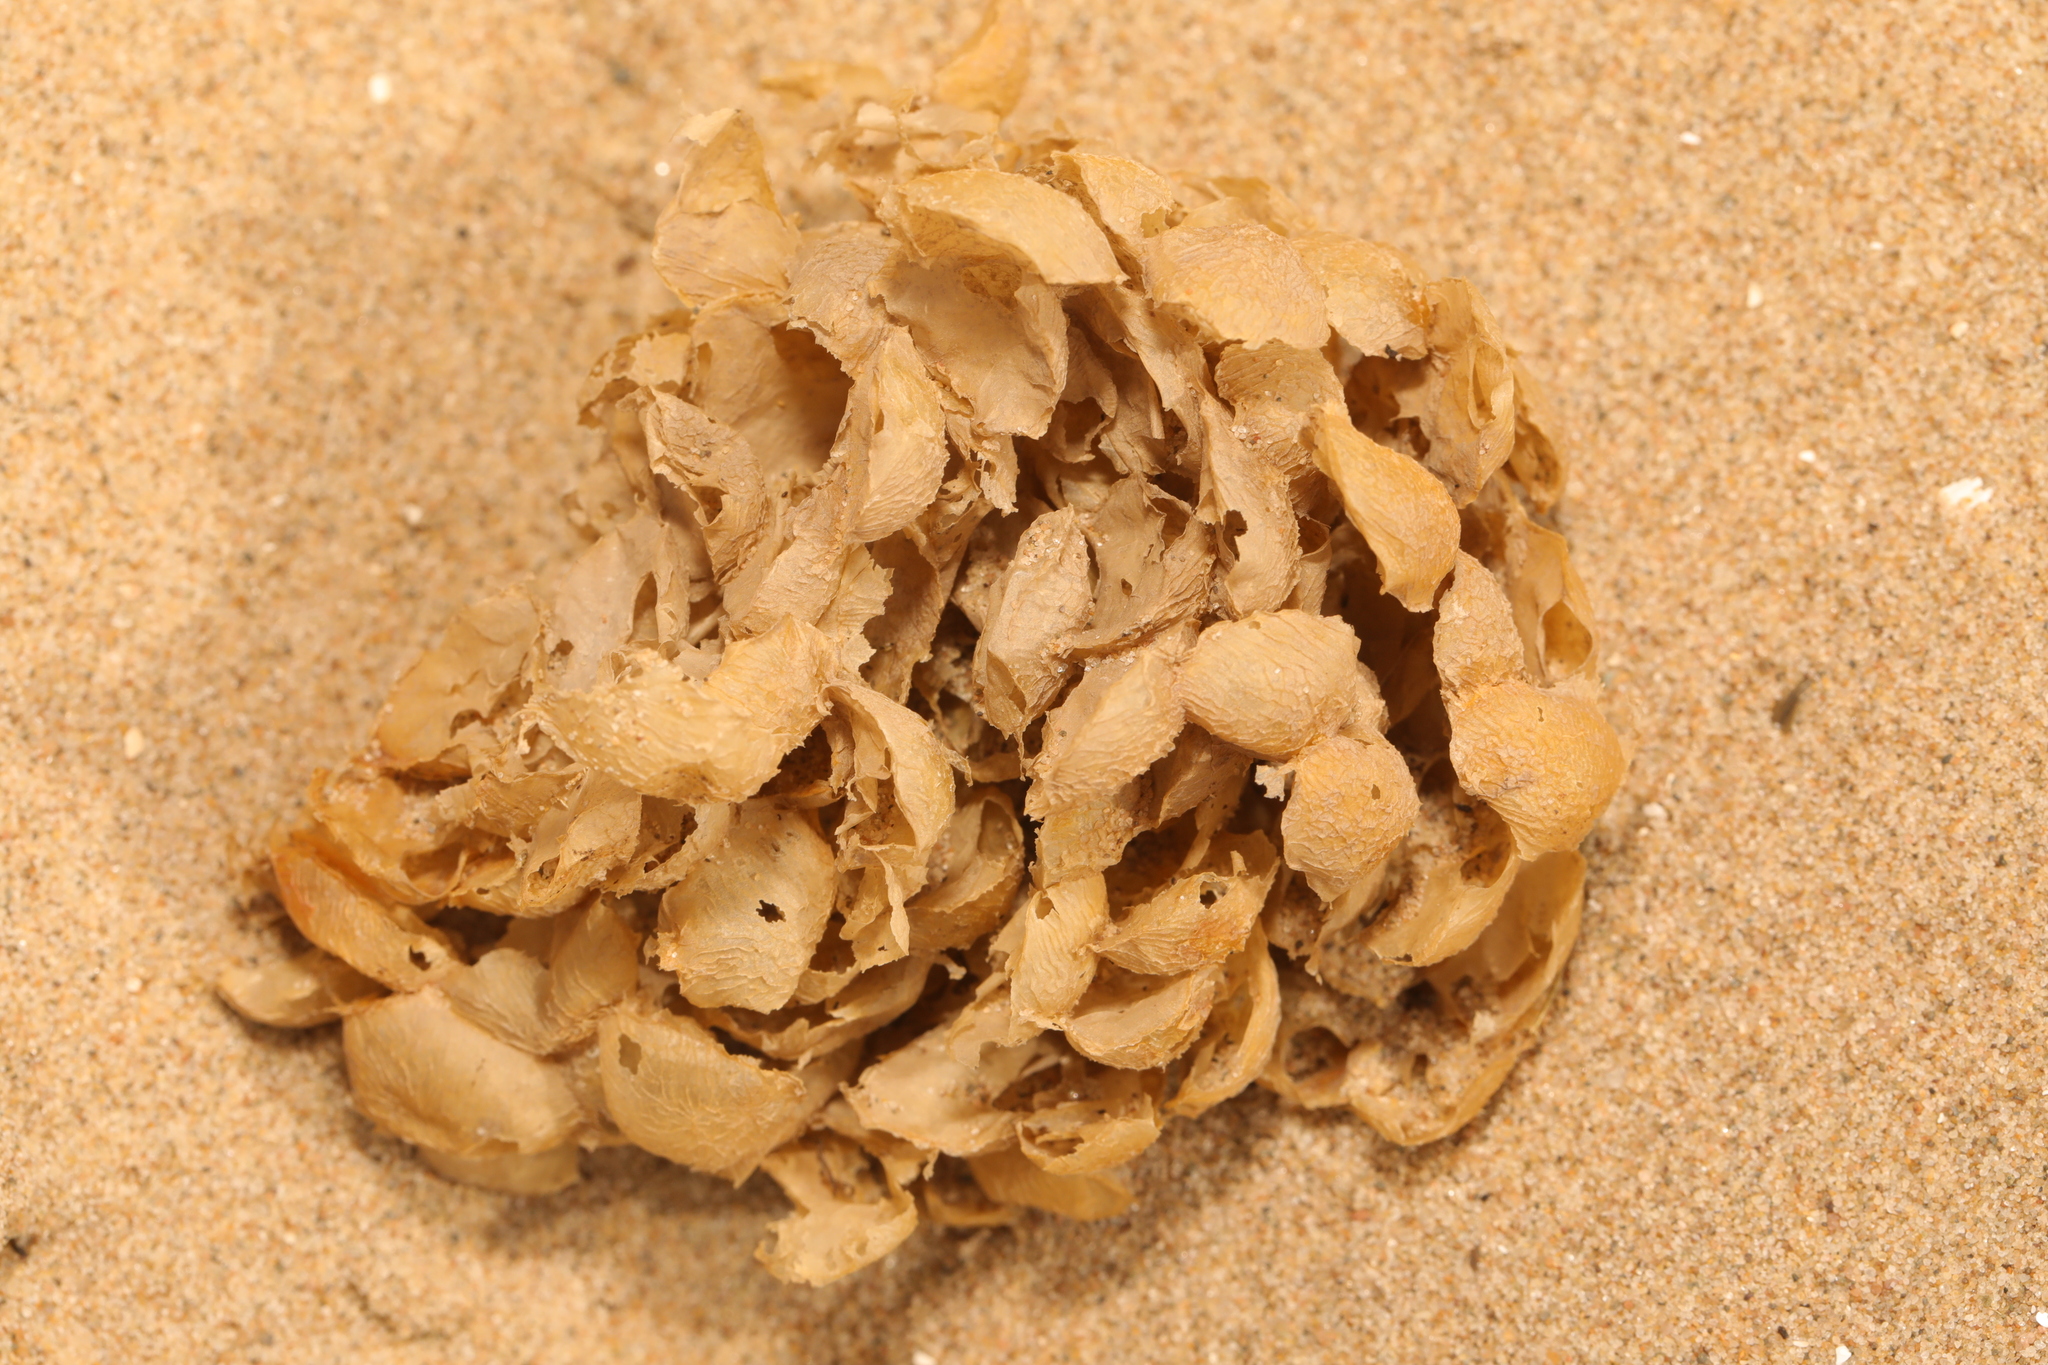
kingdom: Animalia
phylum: Mollusca
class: Gastropoda
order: Neogastropoda
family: Buccinidae
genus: Buccinum
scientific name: Buccinum undatum
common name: Common whelk
